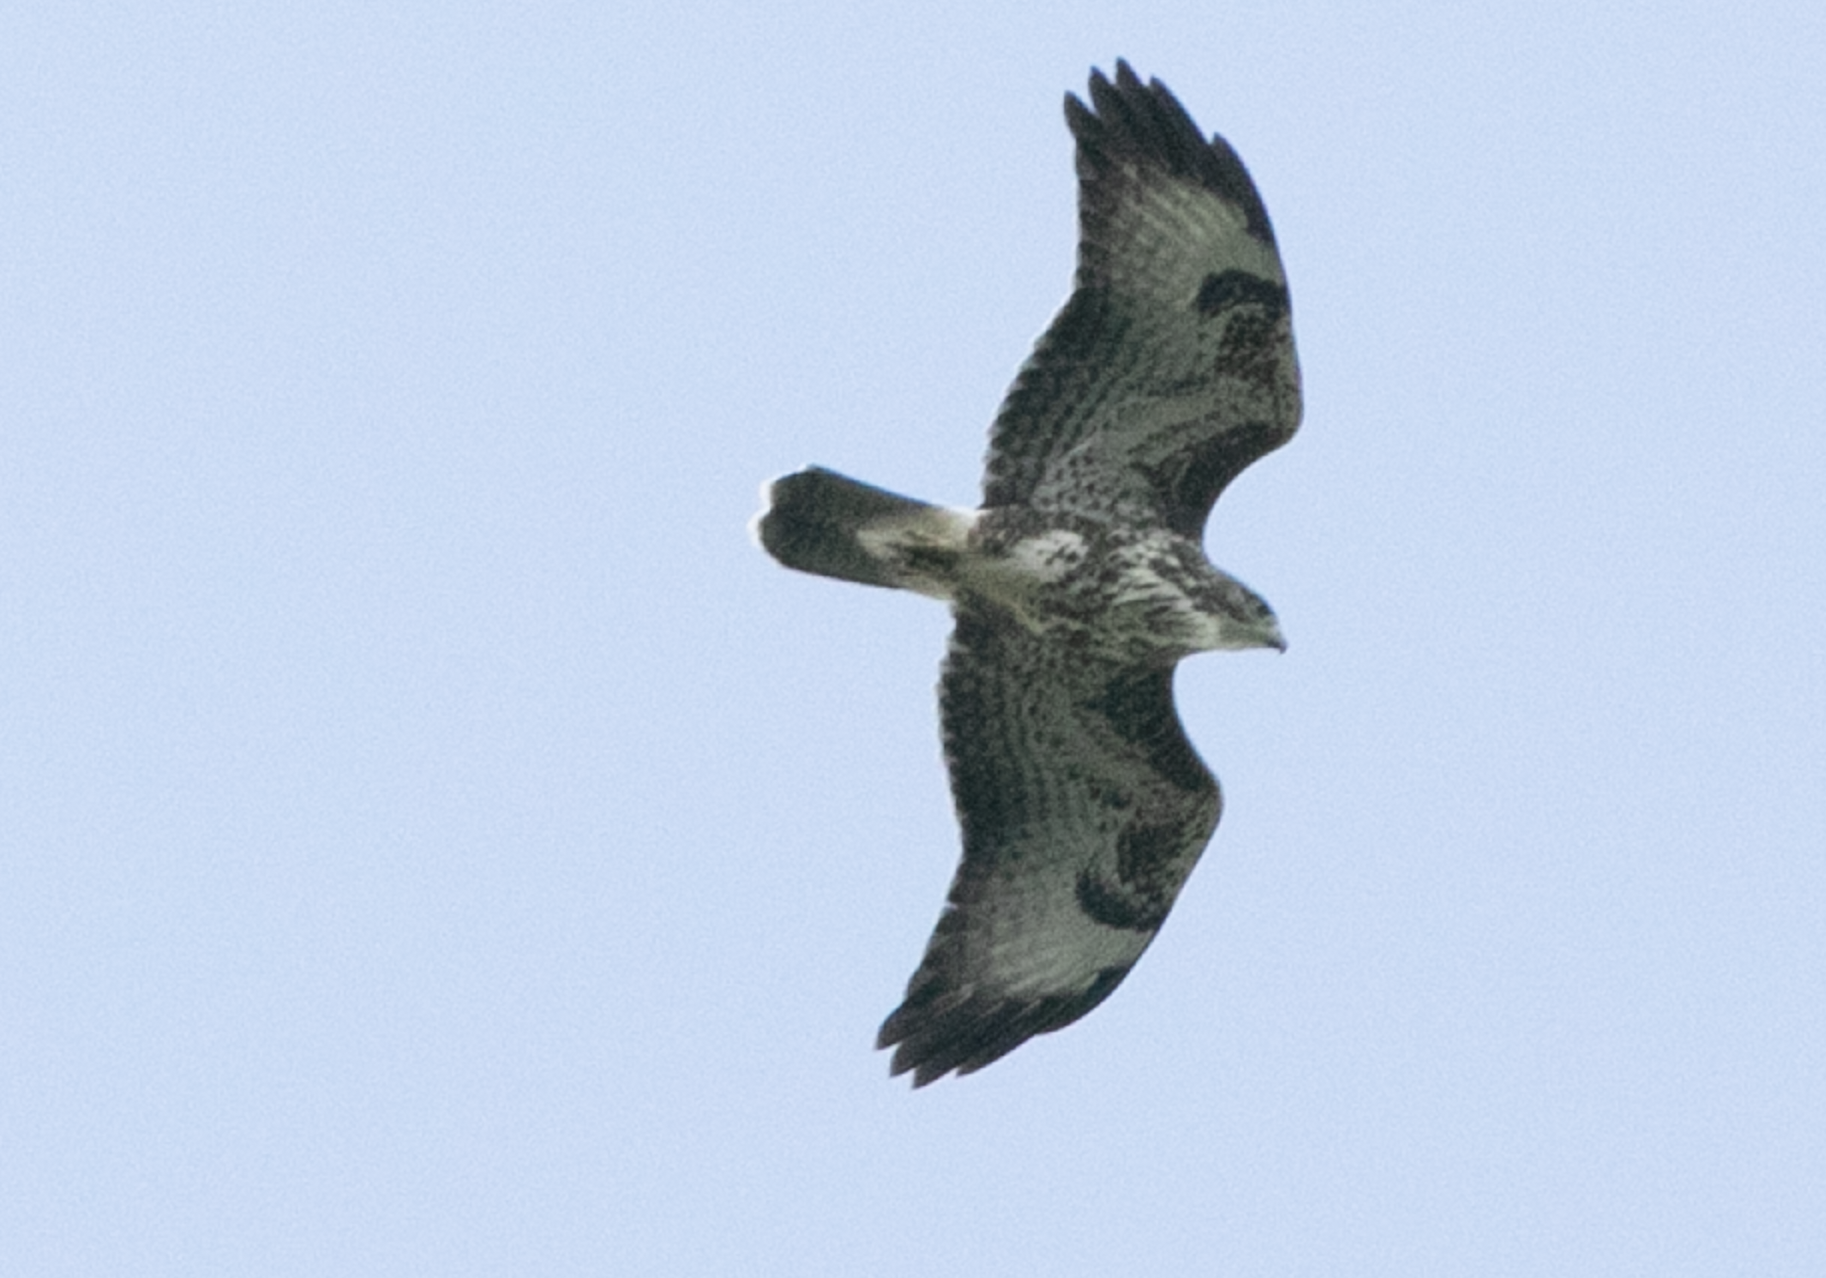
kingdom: Animalia
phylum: Chordata
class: Aves
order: Accipitriformes
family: Accipitridae
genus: Buteo
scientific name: Buteo buteo
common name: Common buzzard
